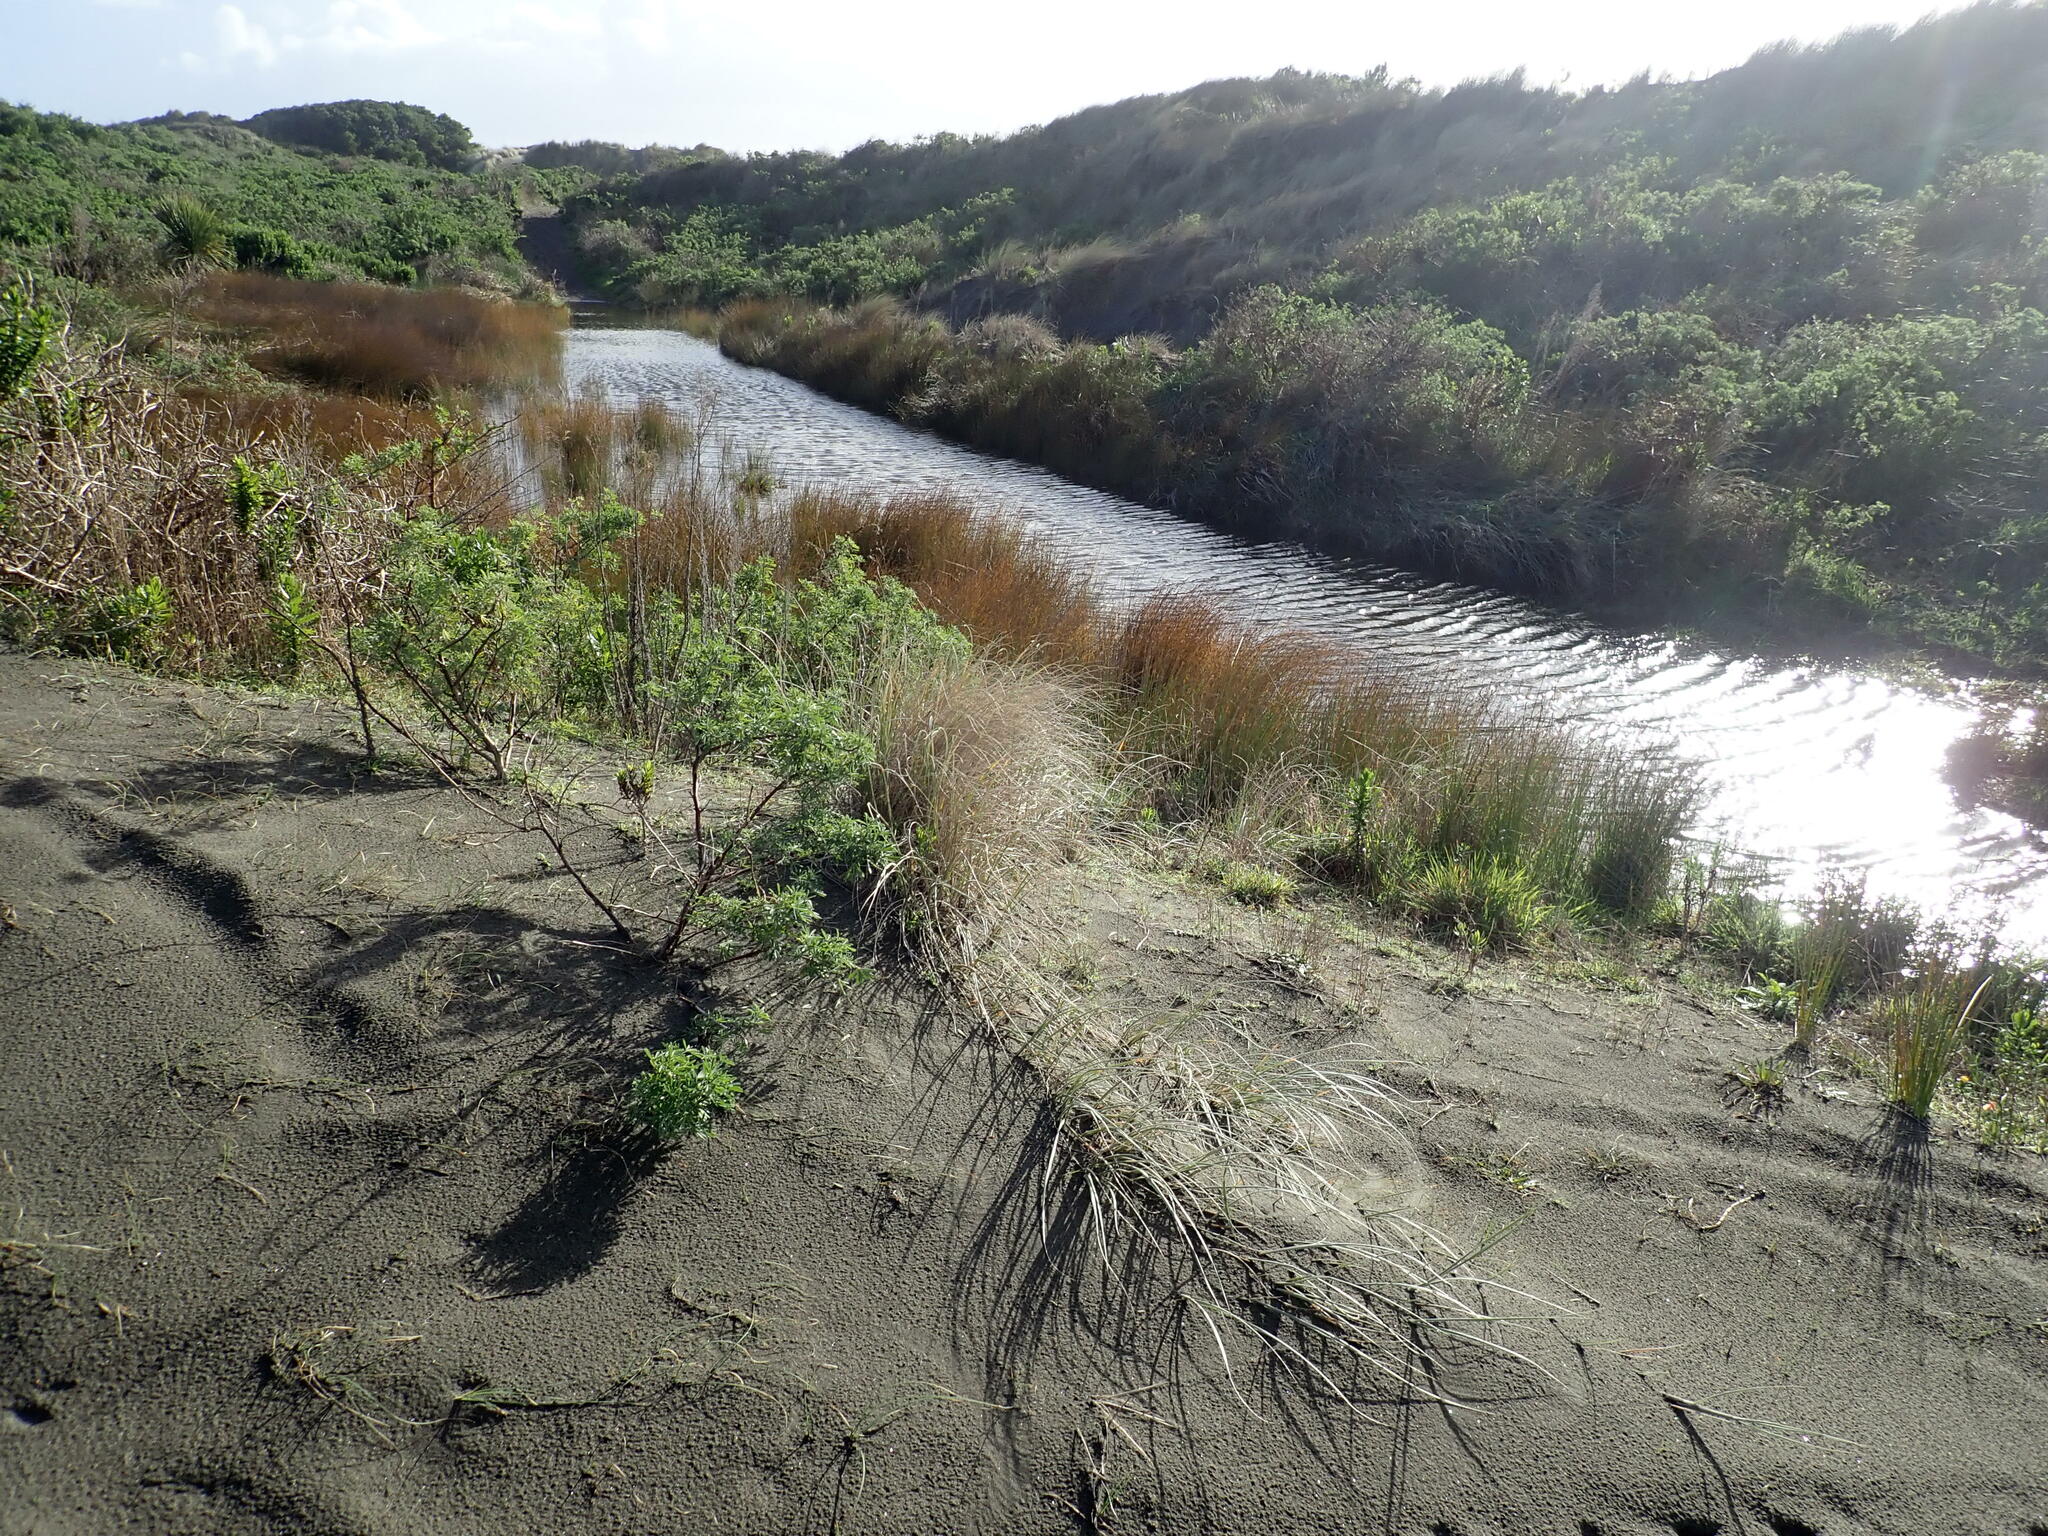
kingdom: Plantae
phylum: Tracheophyta
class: Liliopsida
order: Poales
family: Restionaceae
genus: Apodasmia
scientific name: Apodasmia similis
